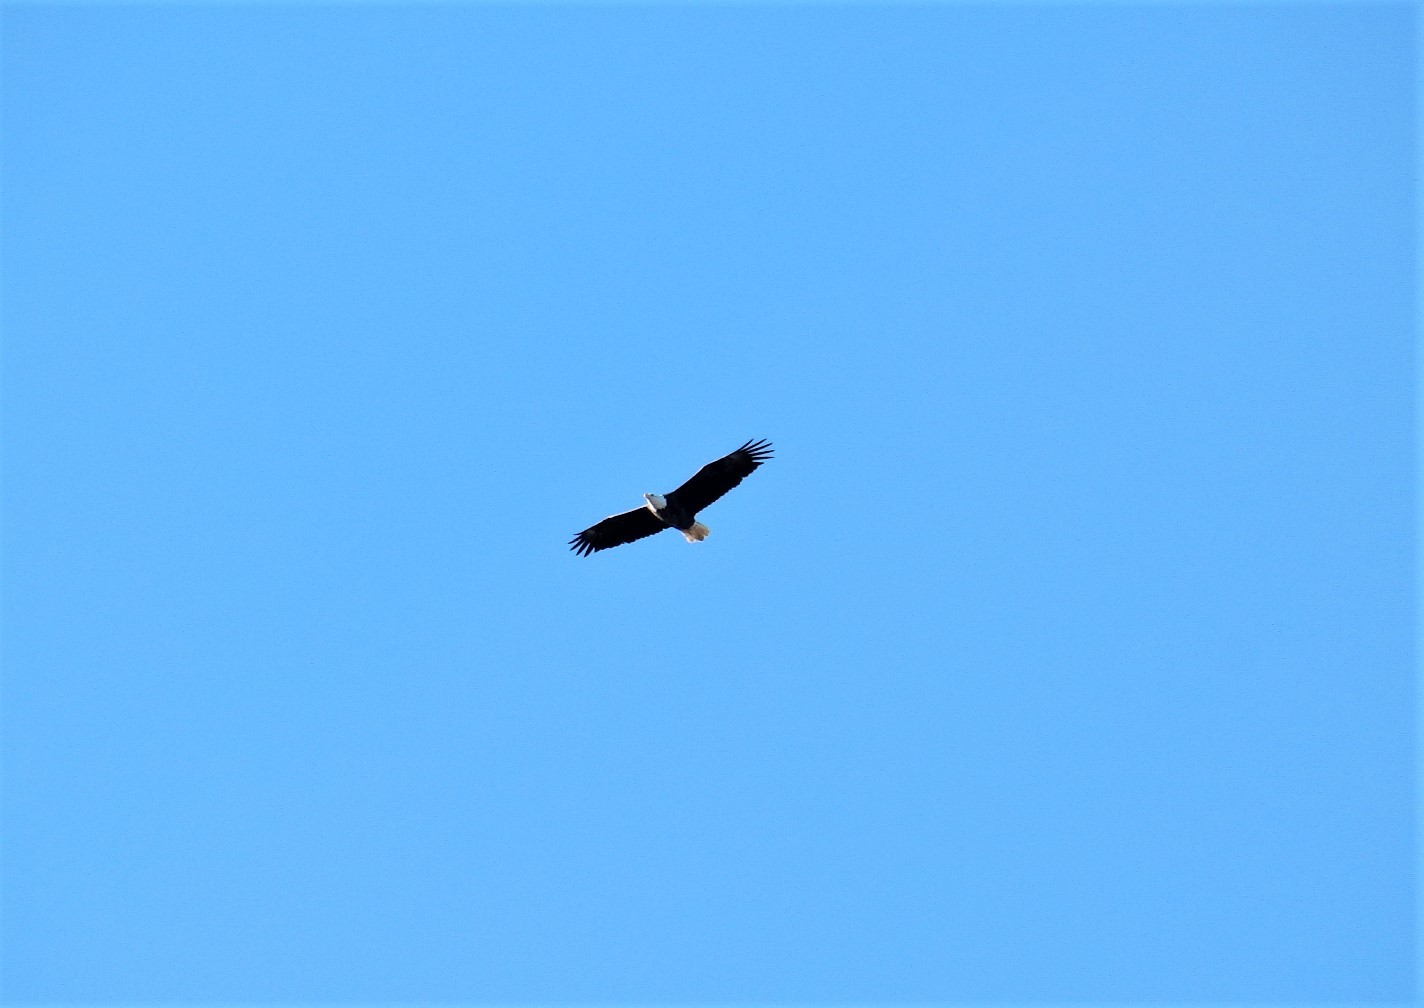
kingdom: Animalia
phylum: Chordata
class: Aves
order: Accipitriformes
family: Accipitridae
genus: Haliaeetus
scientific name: Haliaeetus leucocephalus
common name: Bald eagle
